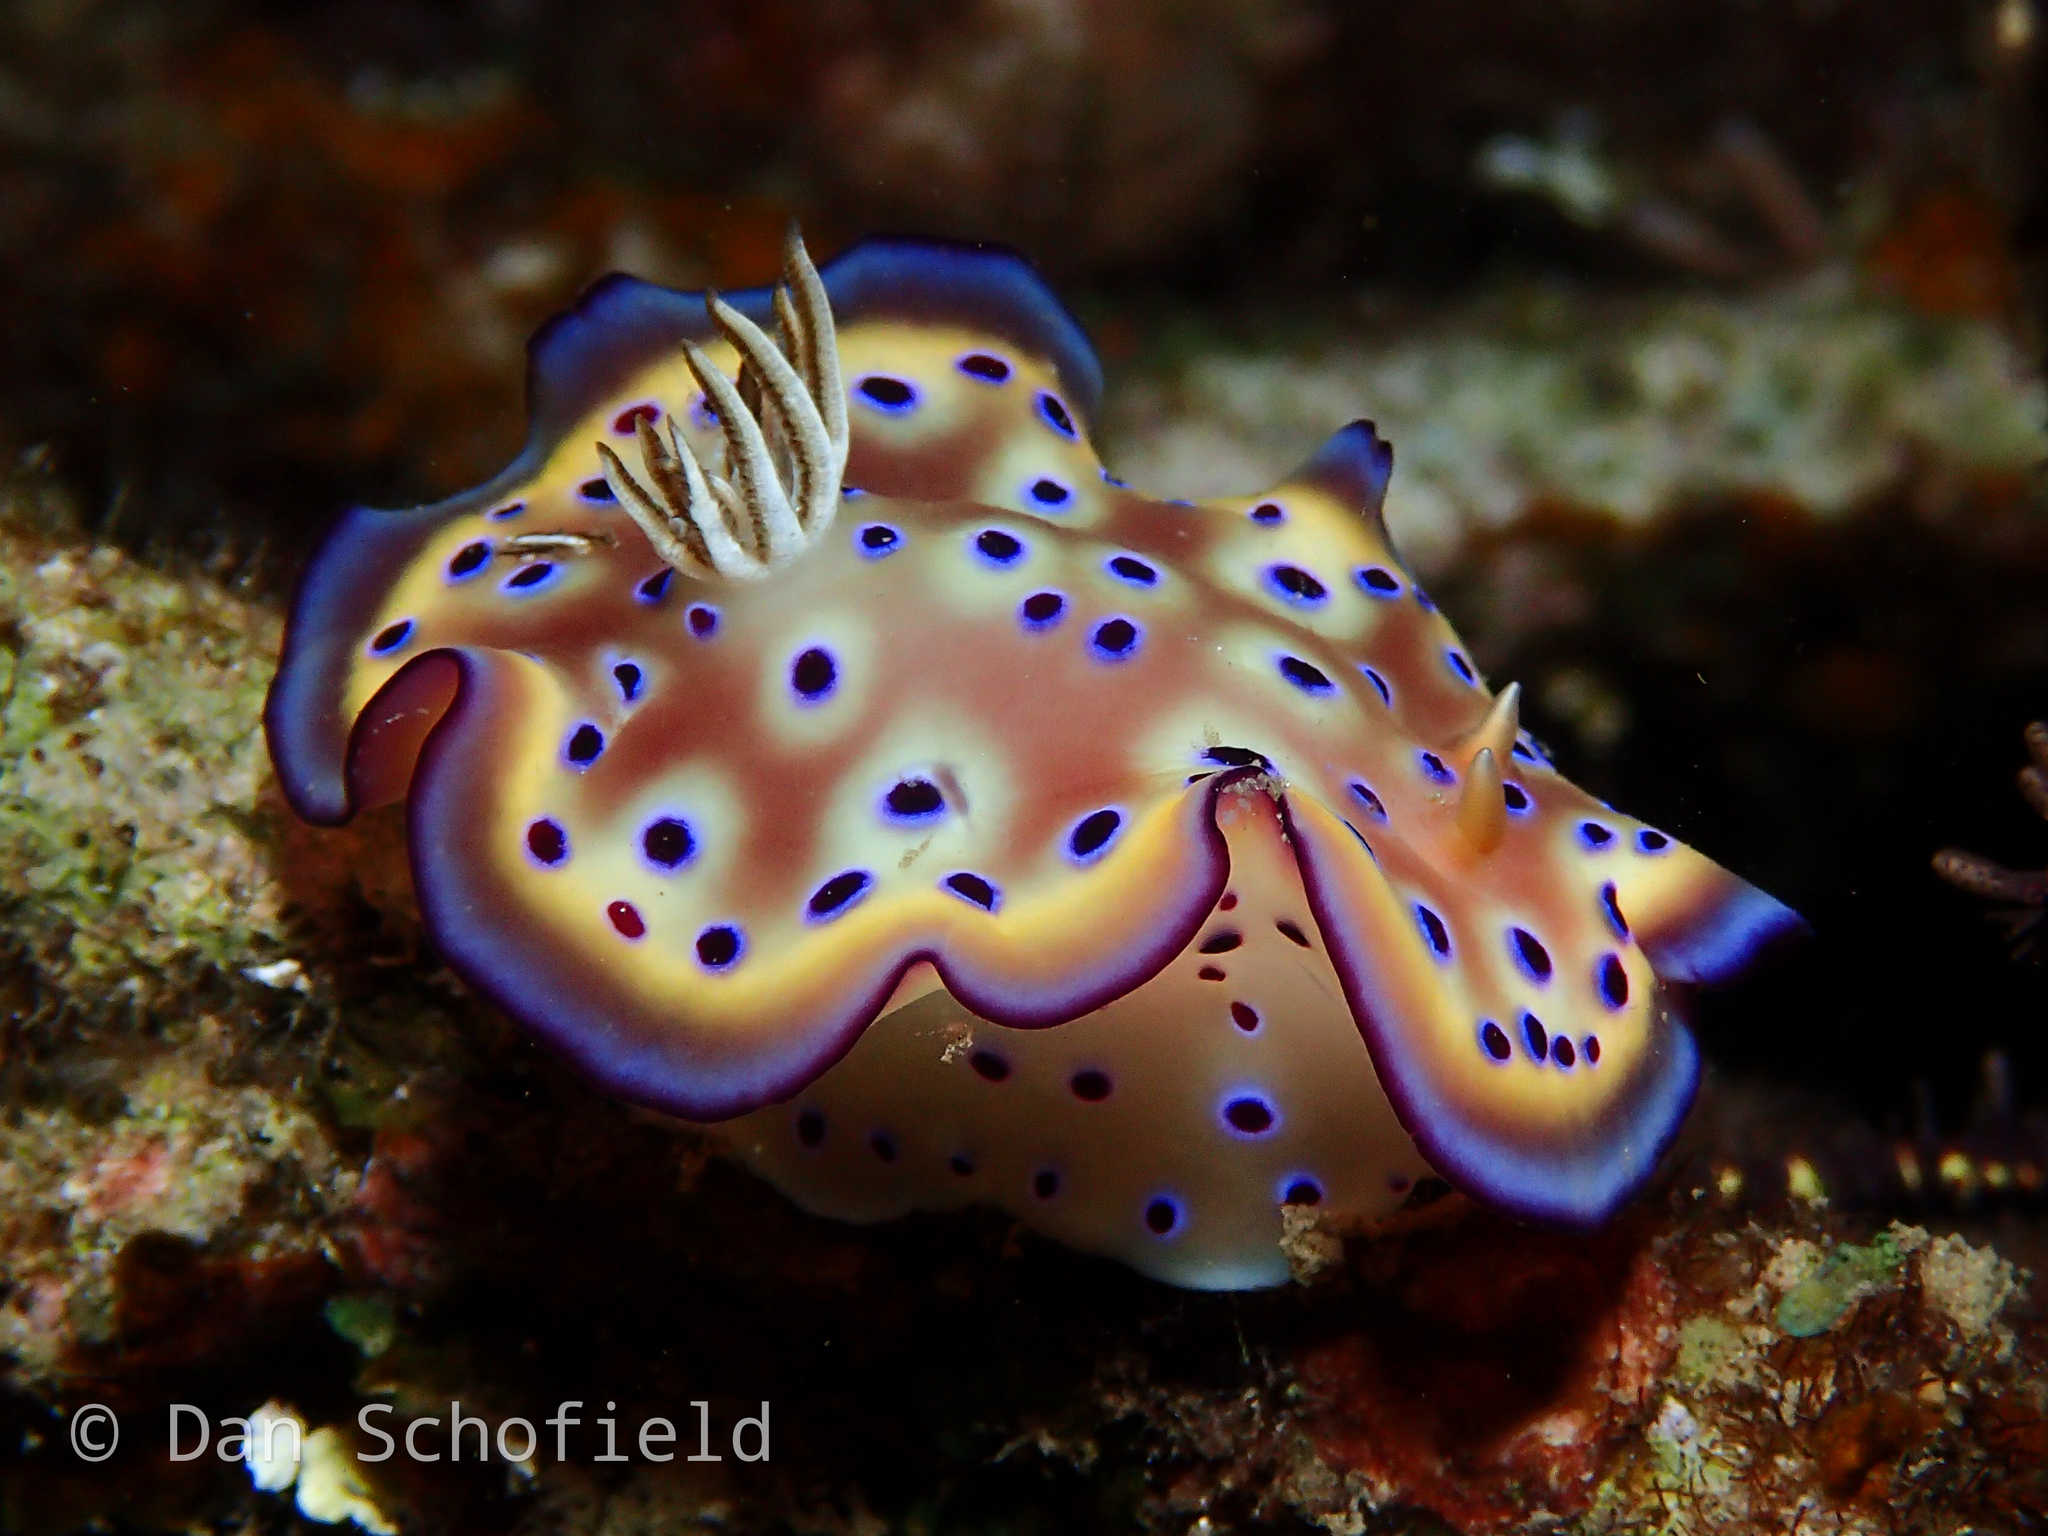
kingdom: Animalia
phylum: Mollusca
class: Gastropoda
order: Nudibranchia
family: Chromodorididae
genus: Goniobranchus
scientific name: Goniobranchus kuniei
